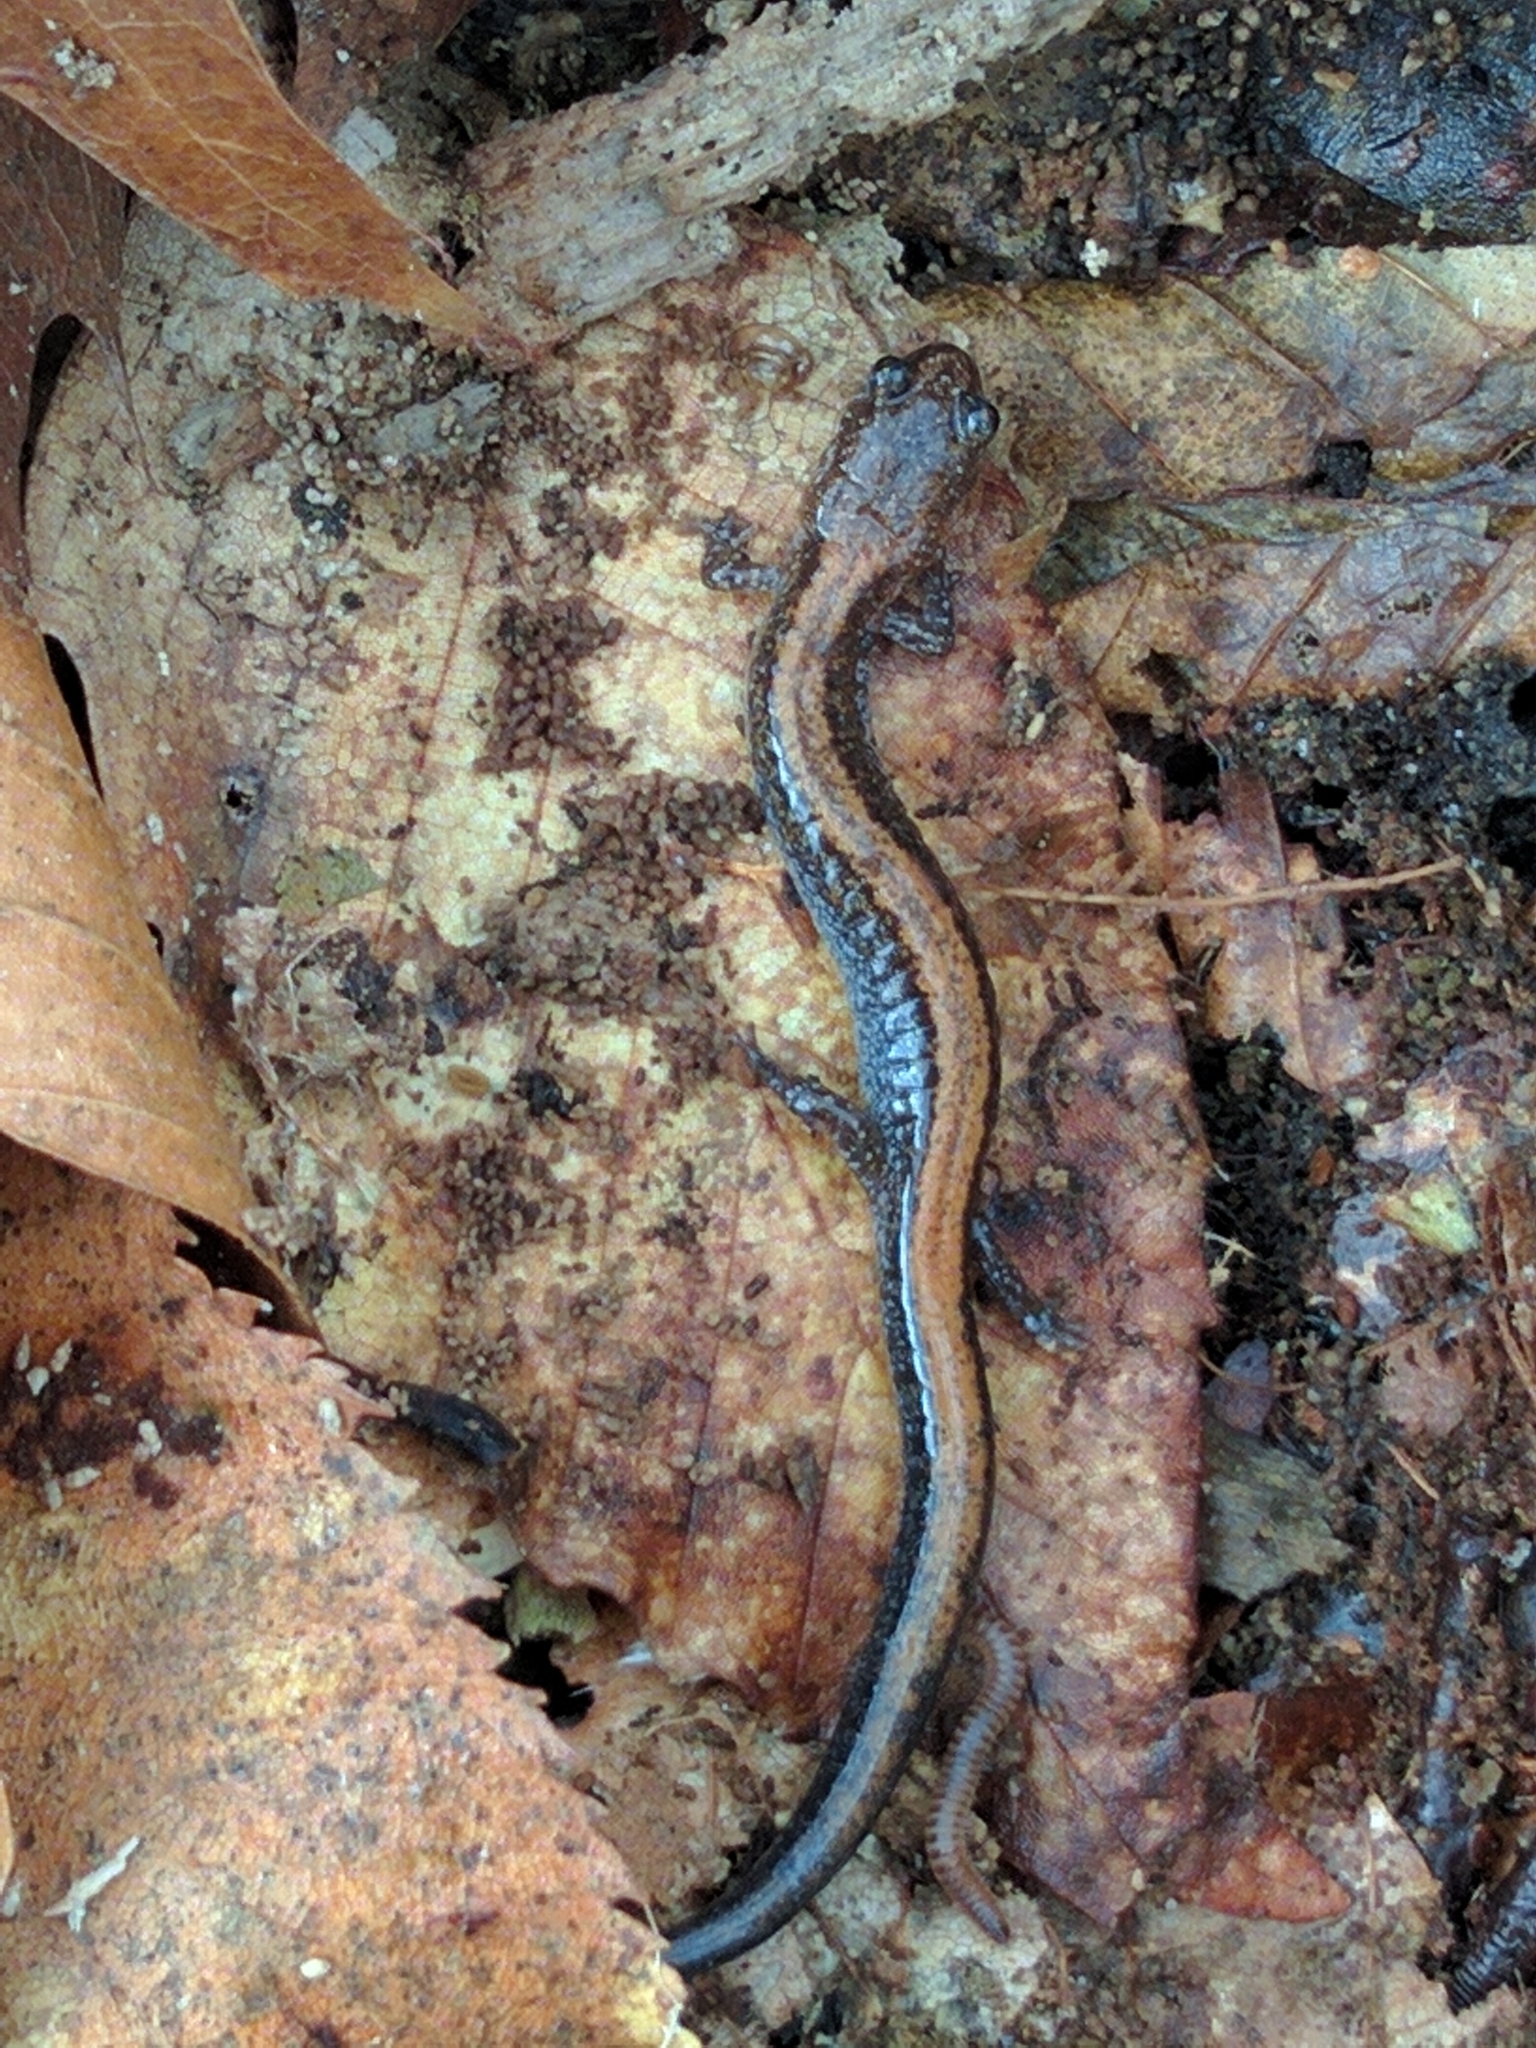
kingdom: Animalia
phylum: Chordata
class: Amphibia
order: Caudata
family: Plethodontidae
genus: Plethodon
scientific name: Plethodon cinereus
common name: Redback salamander
